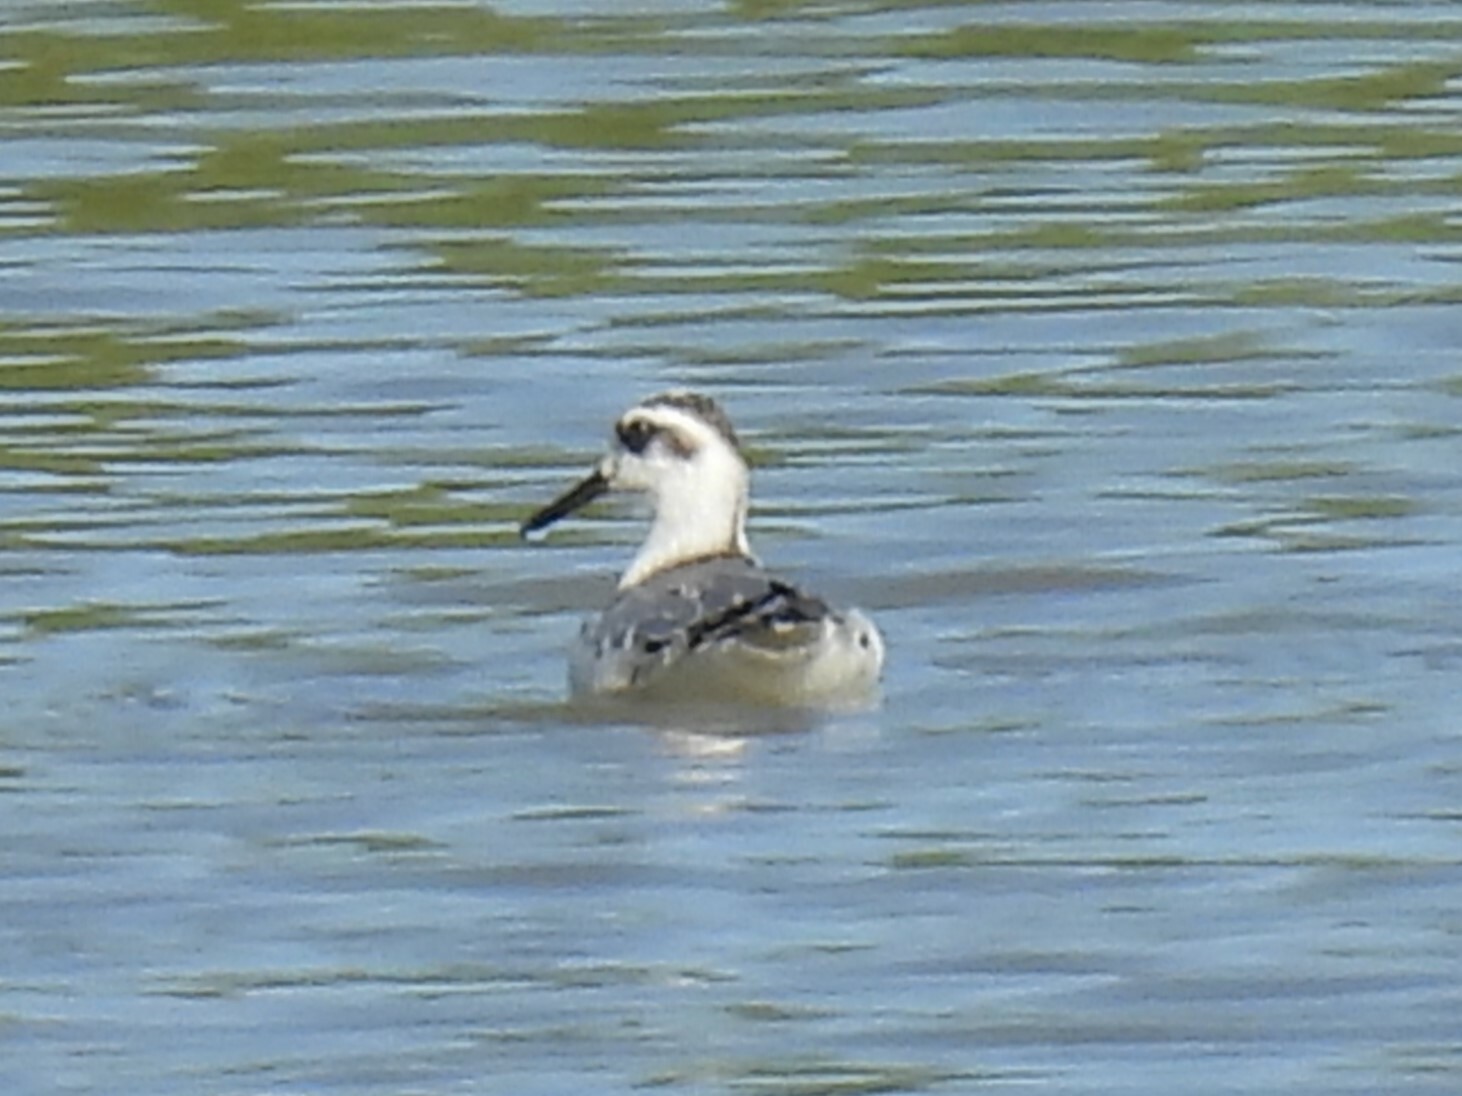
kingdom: Animalia
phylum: Chordata
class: Aves
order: Charadriiformes
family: Scolopacidae
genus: Phalaropus
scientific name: Phalaropus fulicarius
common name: Red phalarope
